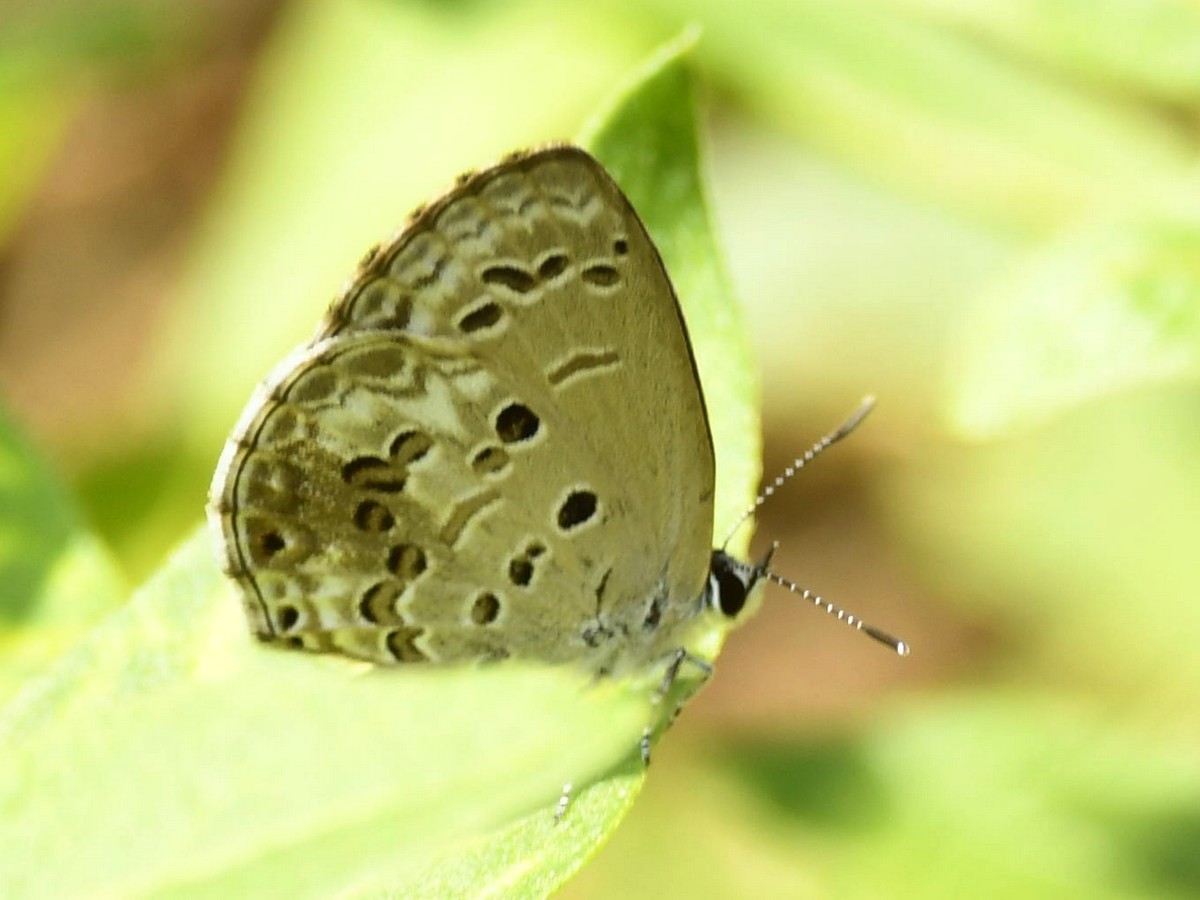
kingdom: Animalia
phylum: Arthropoda
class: Insecta
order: Lepidoptera
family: Lycaenidae
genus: Chilades
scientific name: Chilades laius
